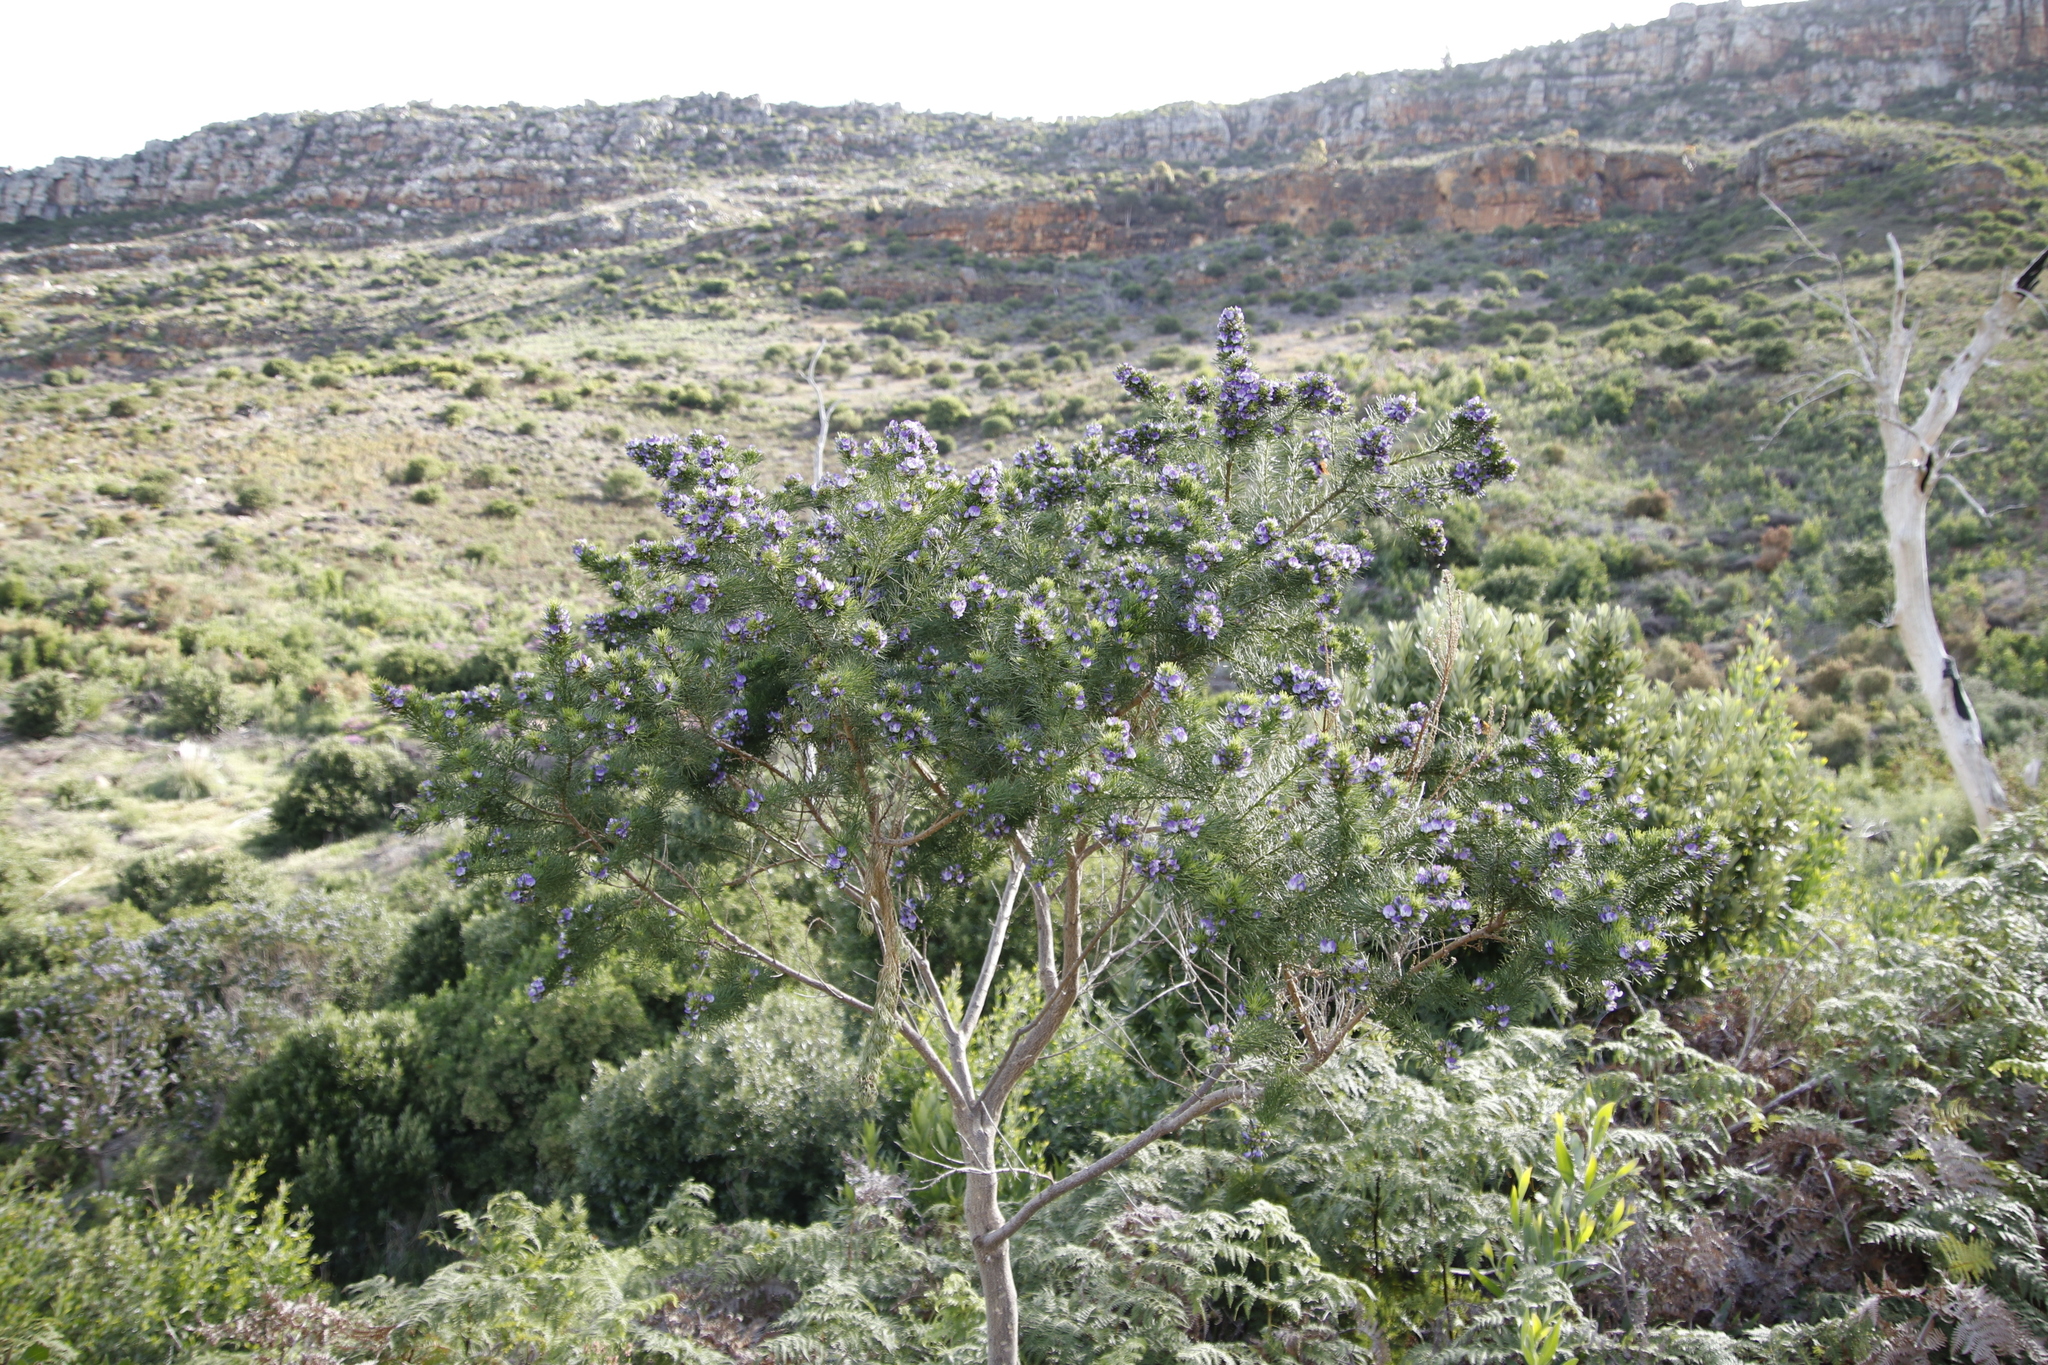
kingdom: Plantae
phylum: Tracheophyta
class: Magnoliopsida
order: Fabales
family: Fabaceae
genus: Psoralea
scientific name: Psoralea pinnata
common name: African scurfpea
